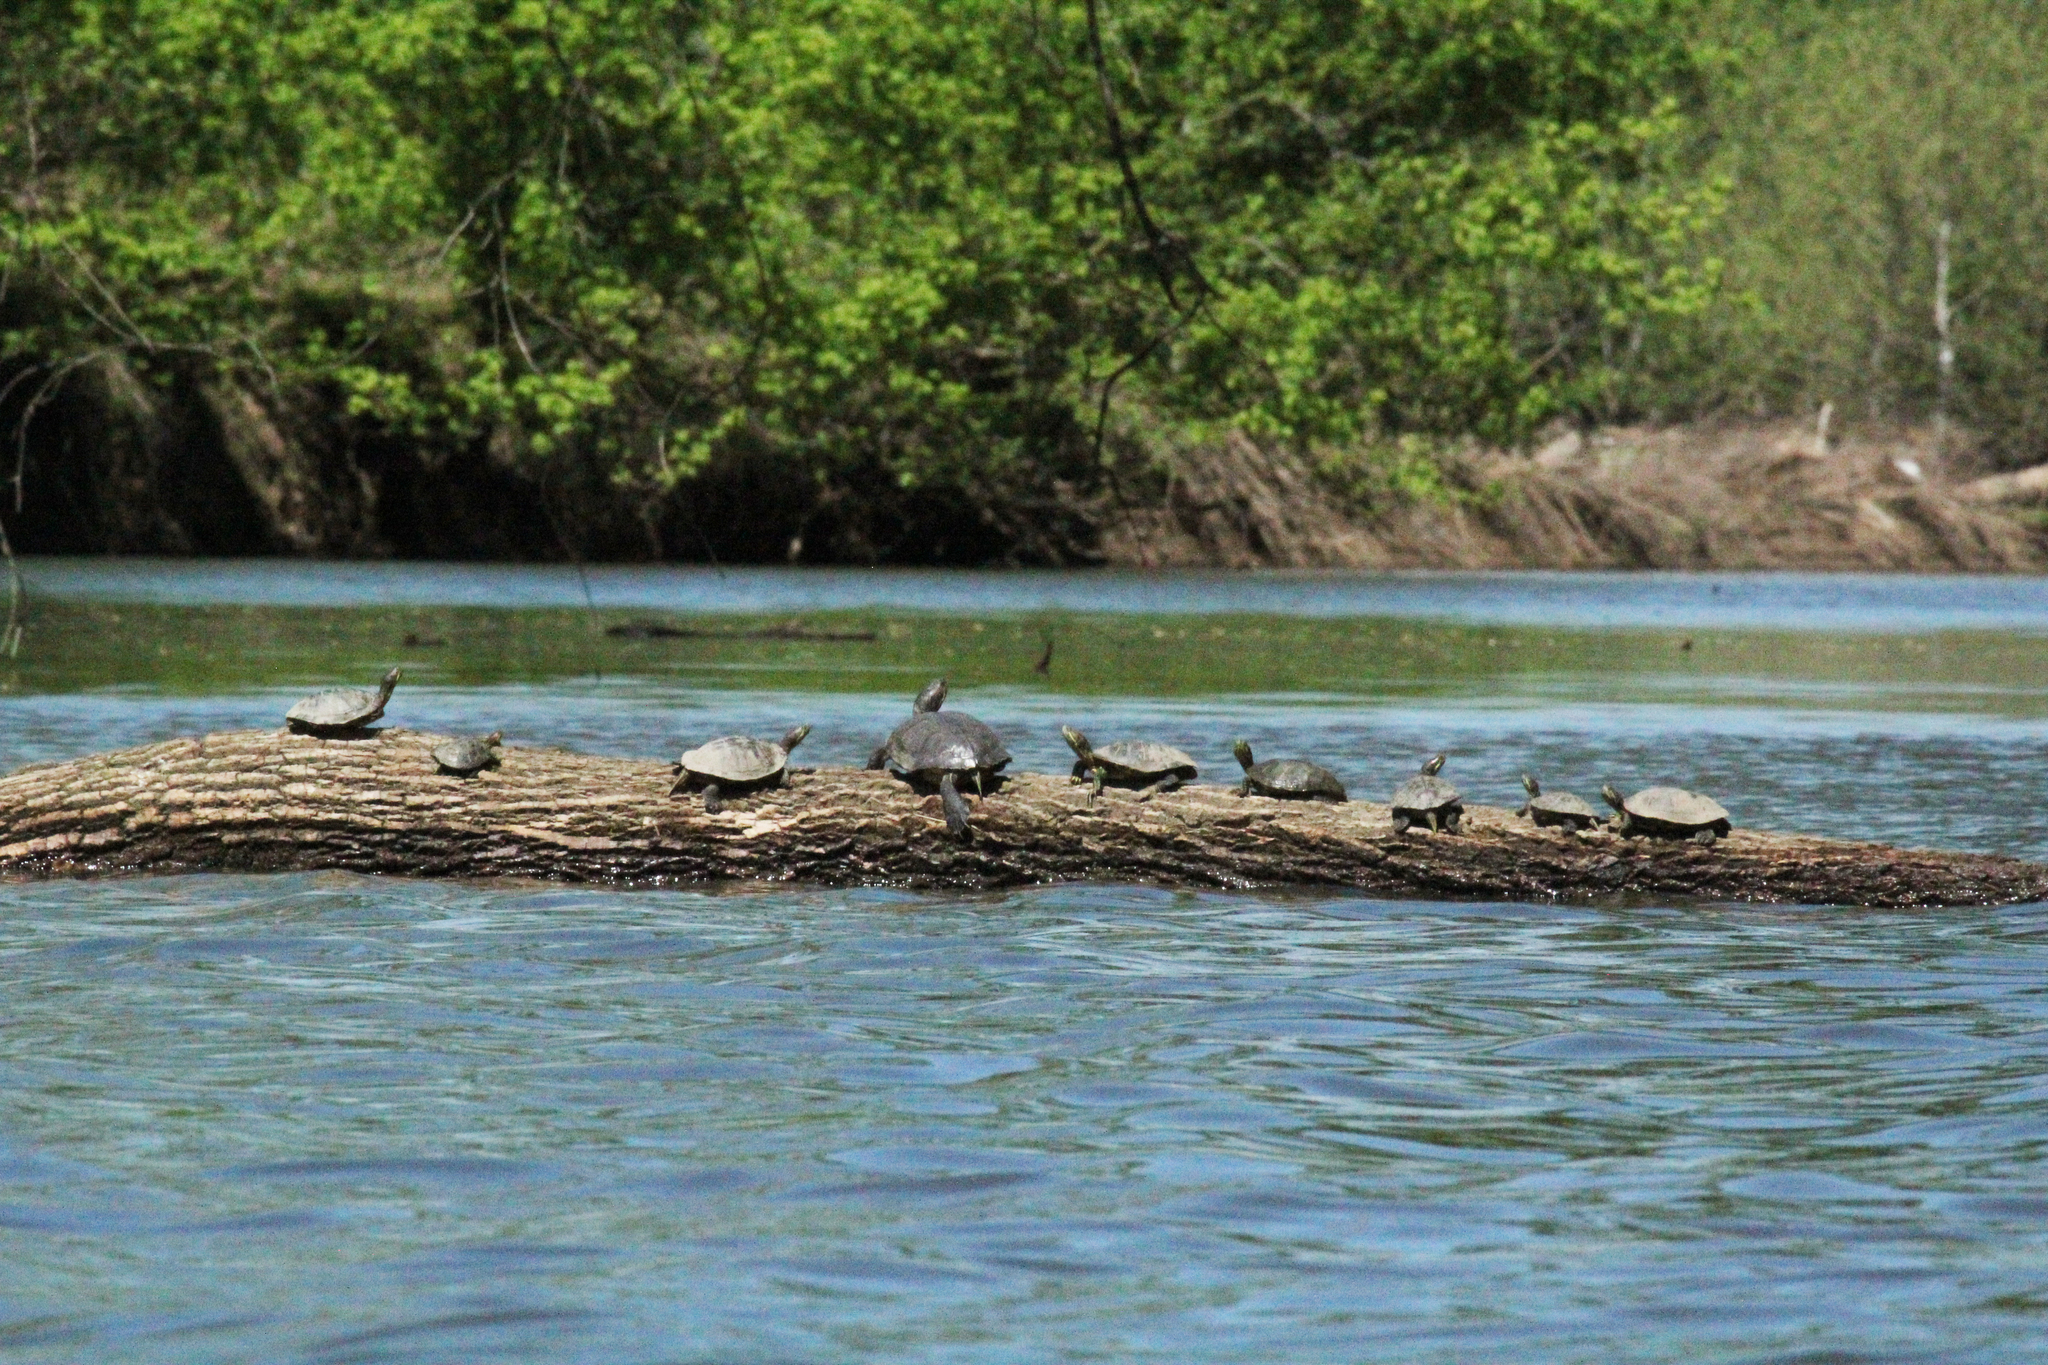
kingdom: Animalia
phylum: Chordata
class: Testudines
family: Emydidae
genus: Trachemys
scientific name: Trachemys scripta
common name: Slider
